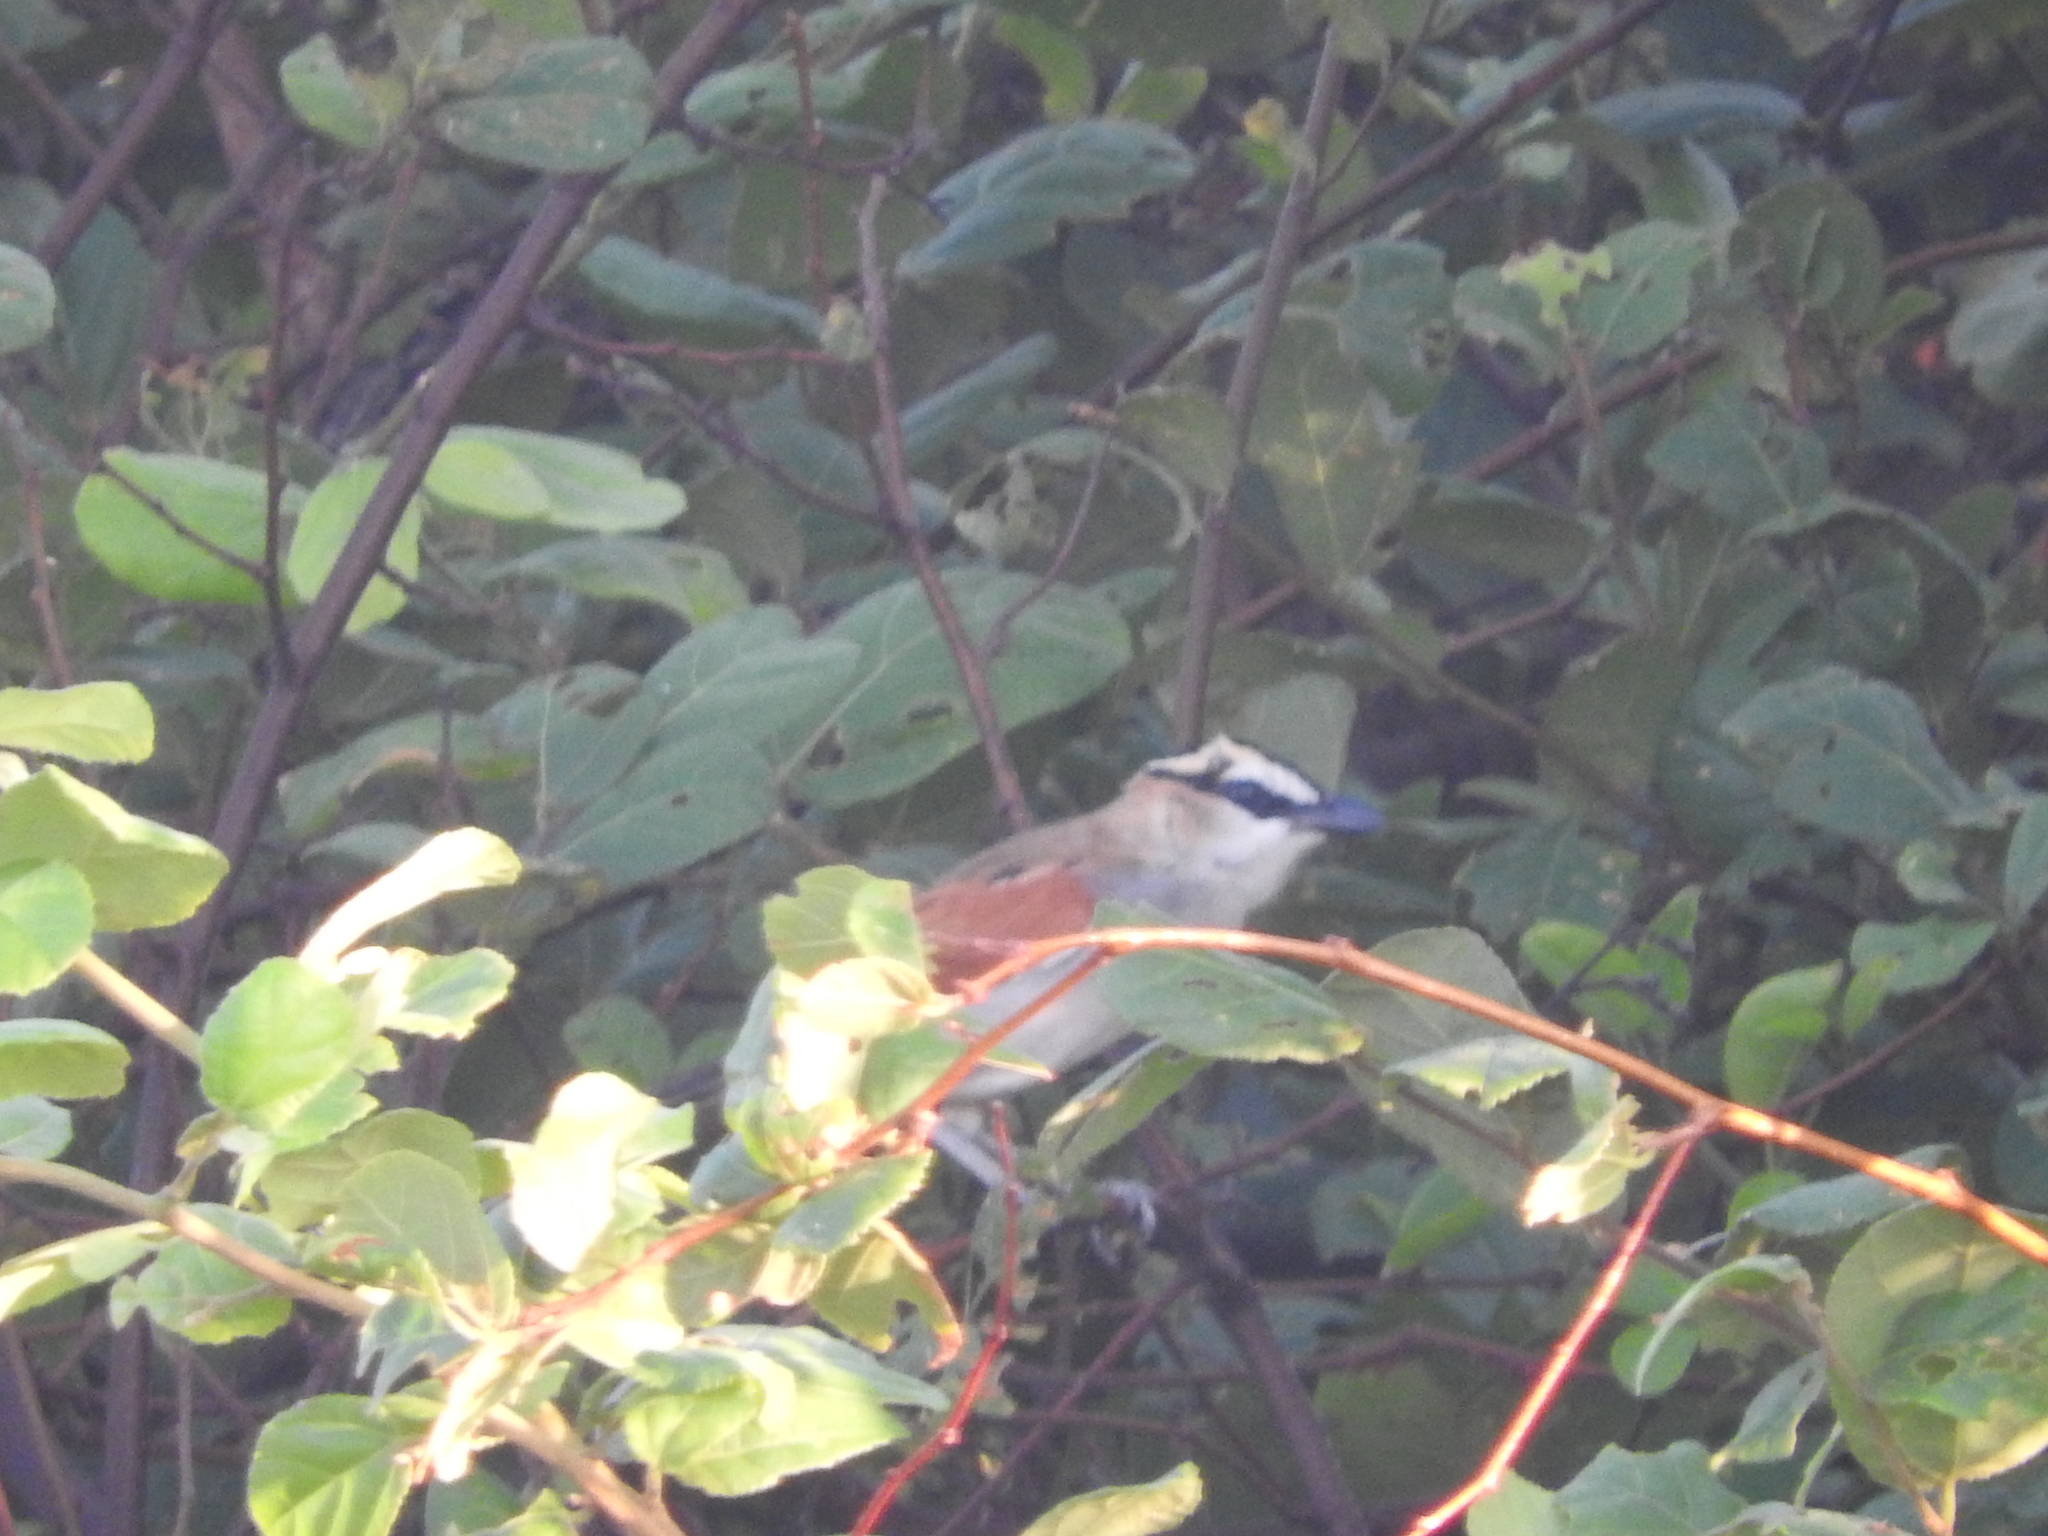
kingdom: Animalia
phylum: Chordata
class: Aves
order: Passeriformes
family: Malaconotidae
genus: Tchagra
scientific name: Tchagra senegalus
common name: Black-crowned tchagra
